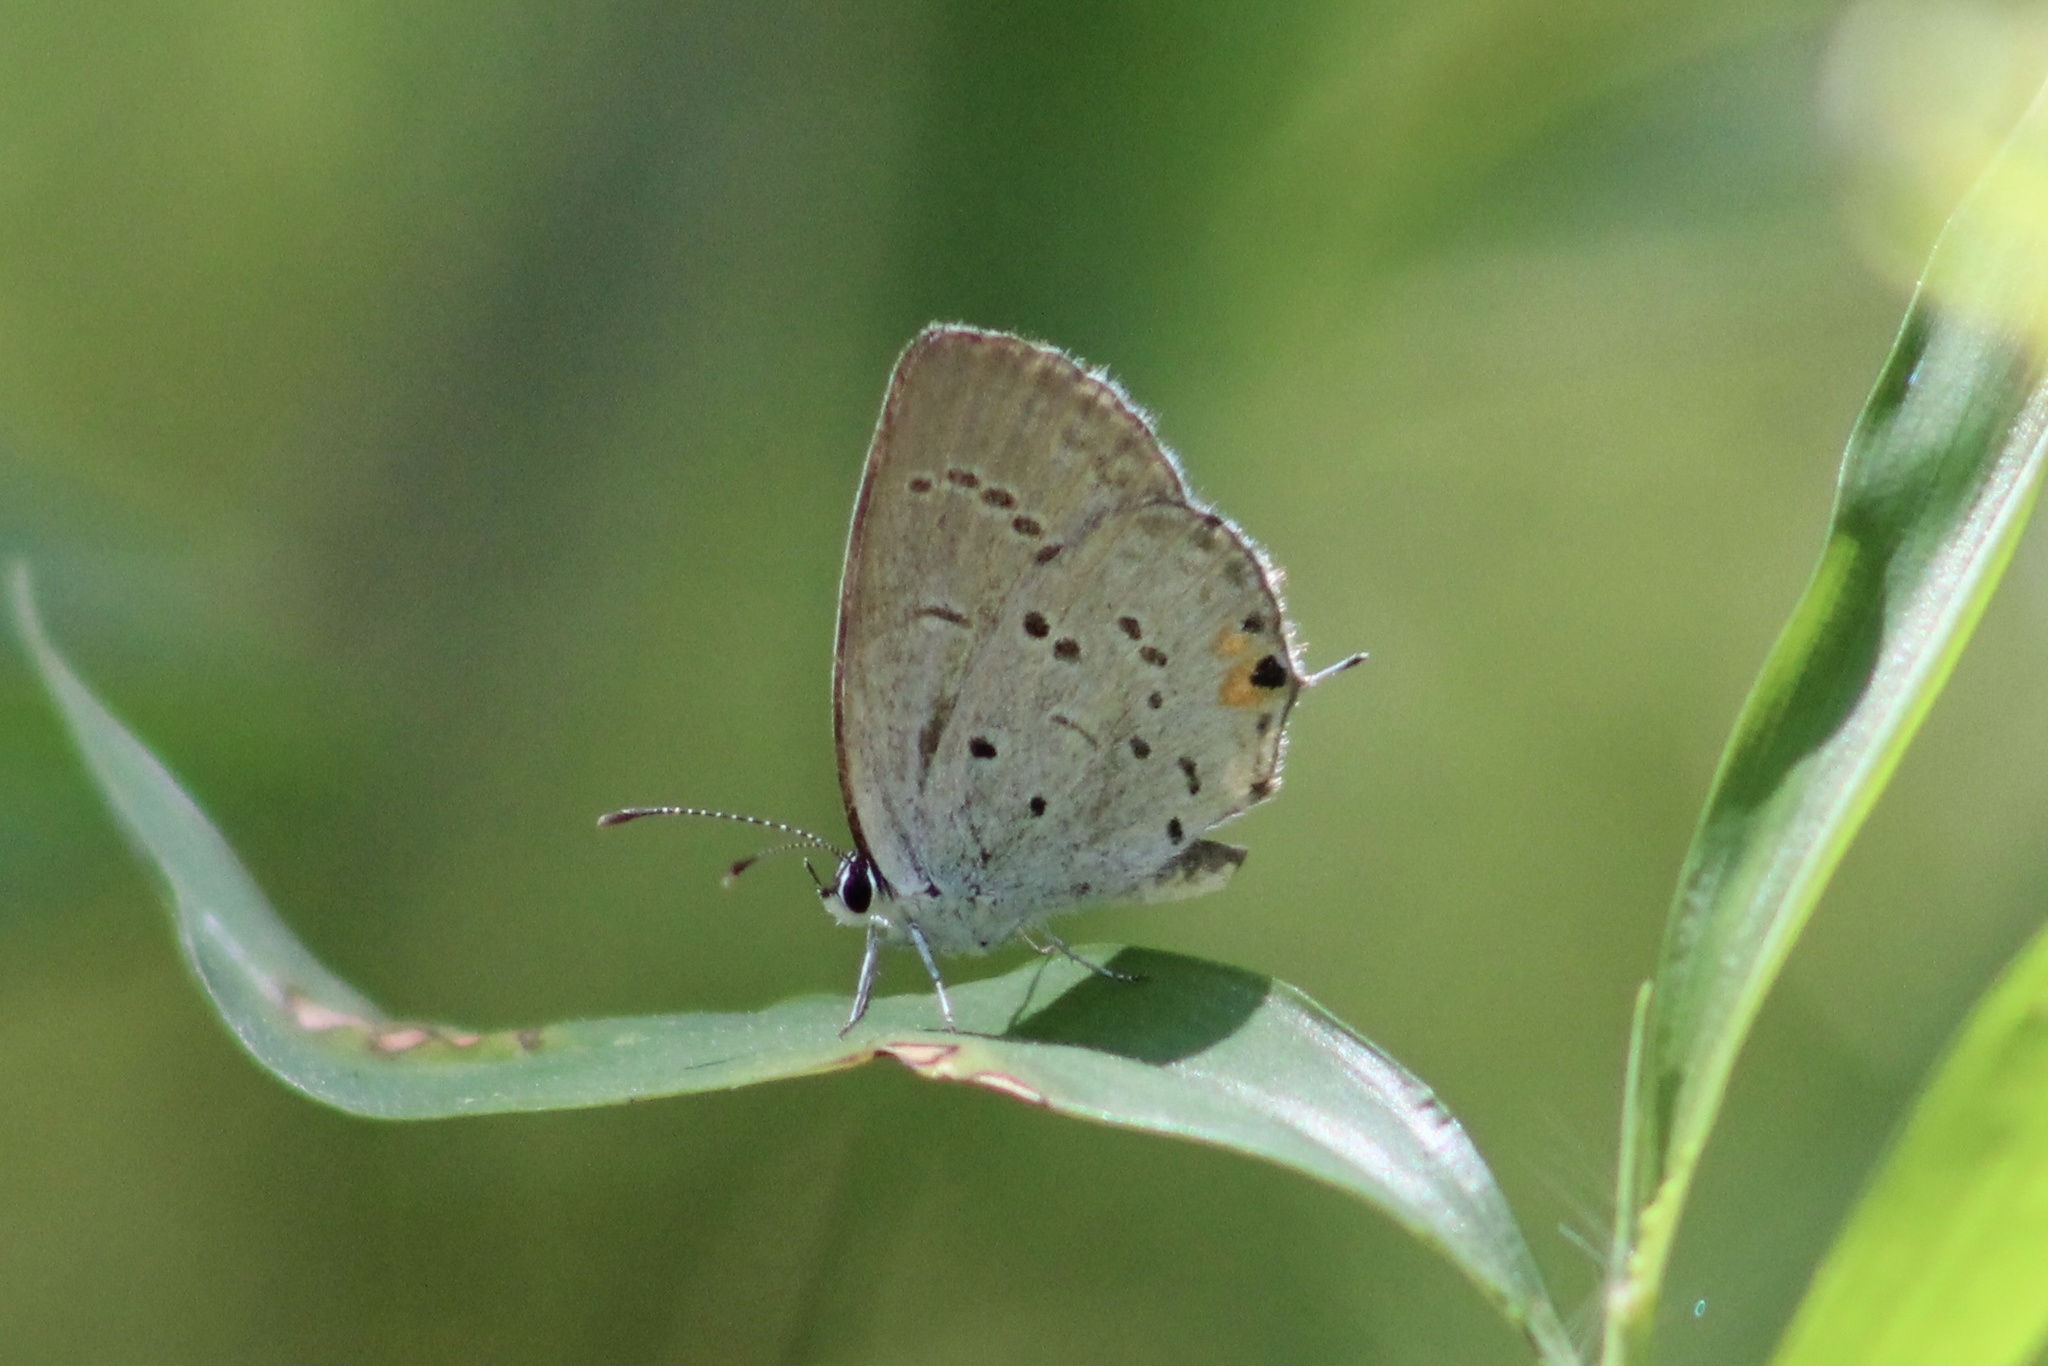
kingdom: Animalia
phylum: Arthropoda
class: Insecta
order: Lepidoptera
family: Lycaenidae
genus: Elkalyce
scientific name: Elkalyce comyntas
